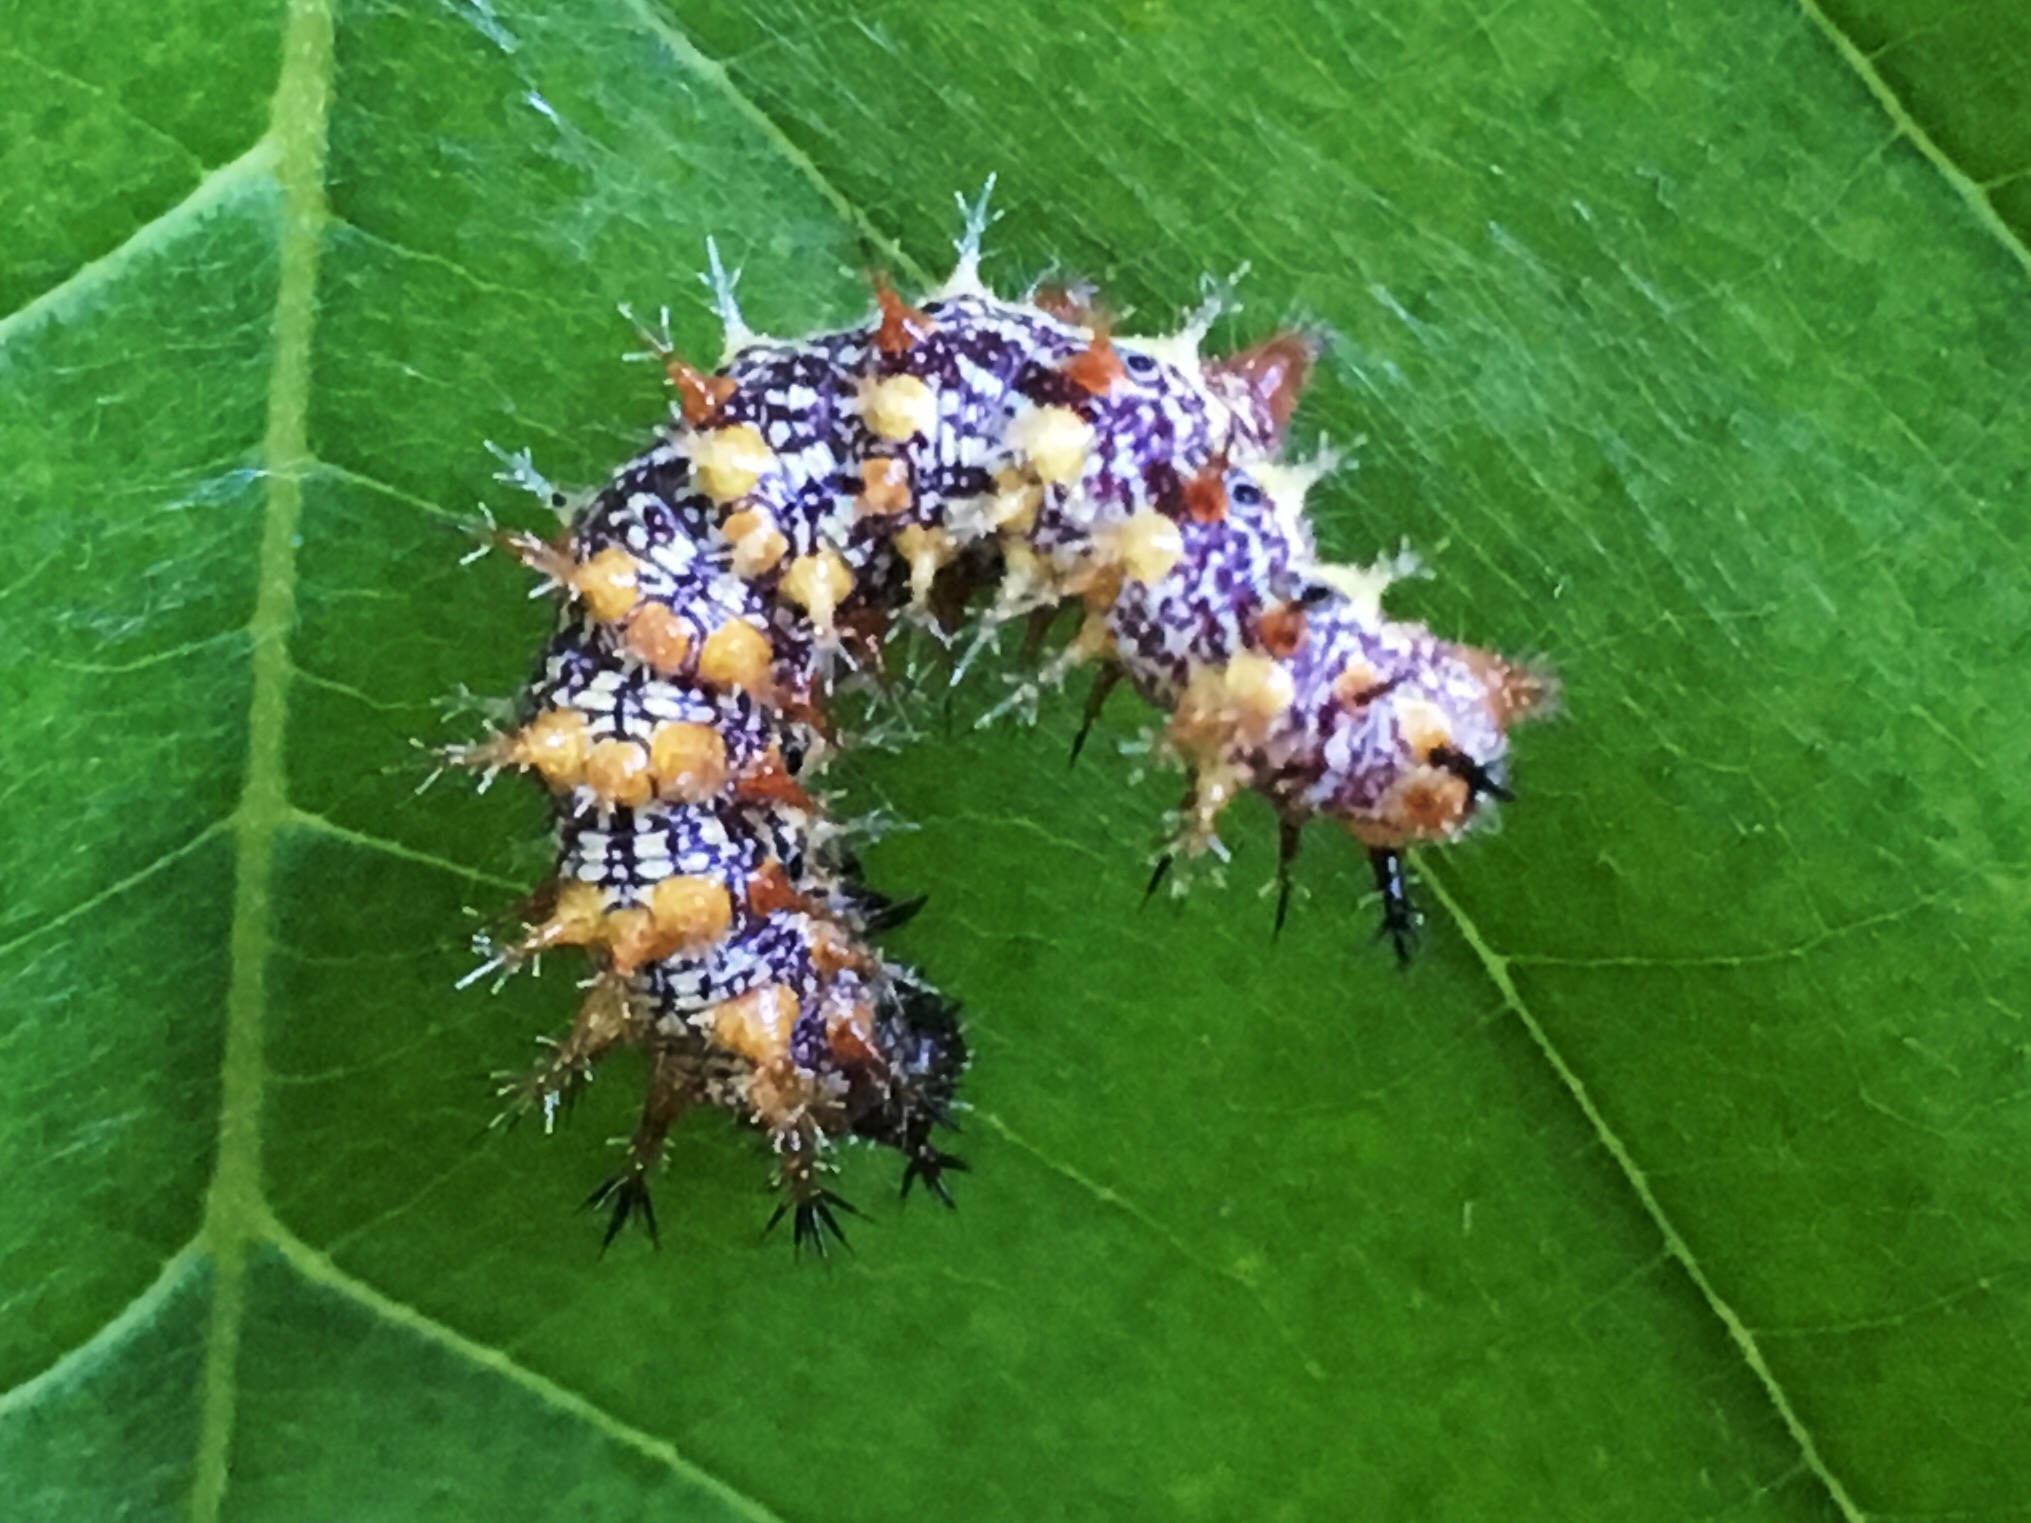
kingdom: Animalia
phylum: Arthropoda
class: Insecta
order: Lepidoptera
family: Nymphalidae
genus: Polygonia
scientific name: Polygonia interrogationis
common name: Question mark
